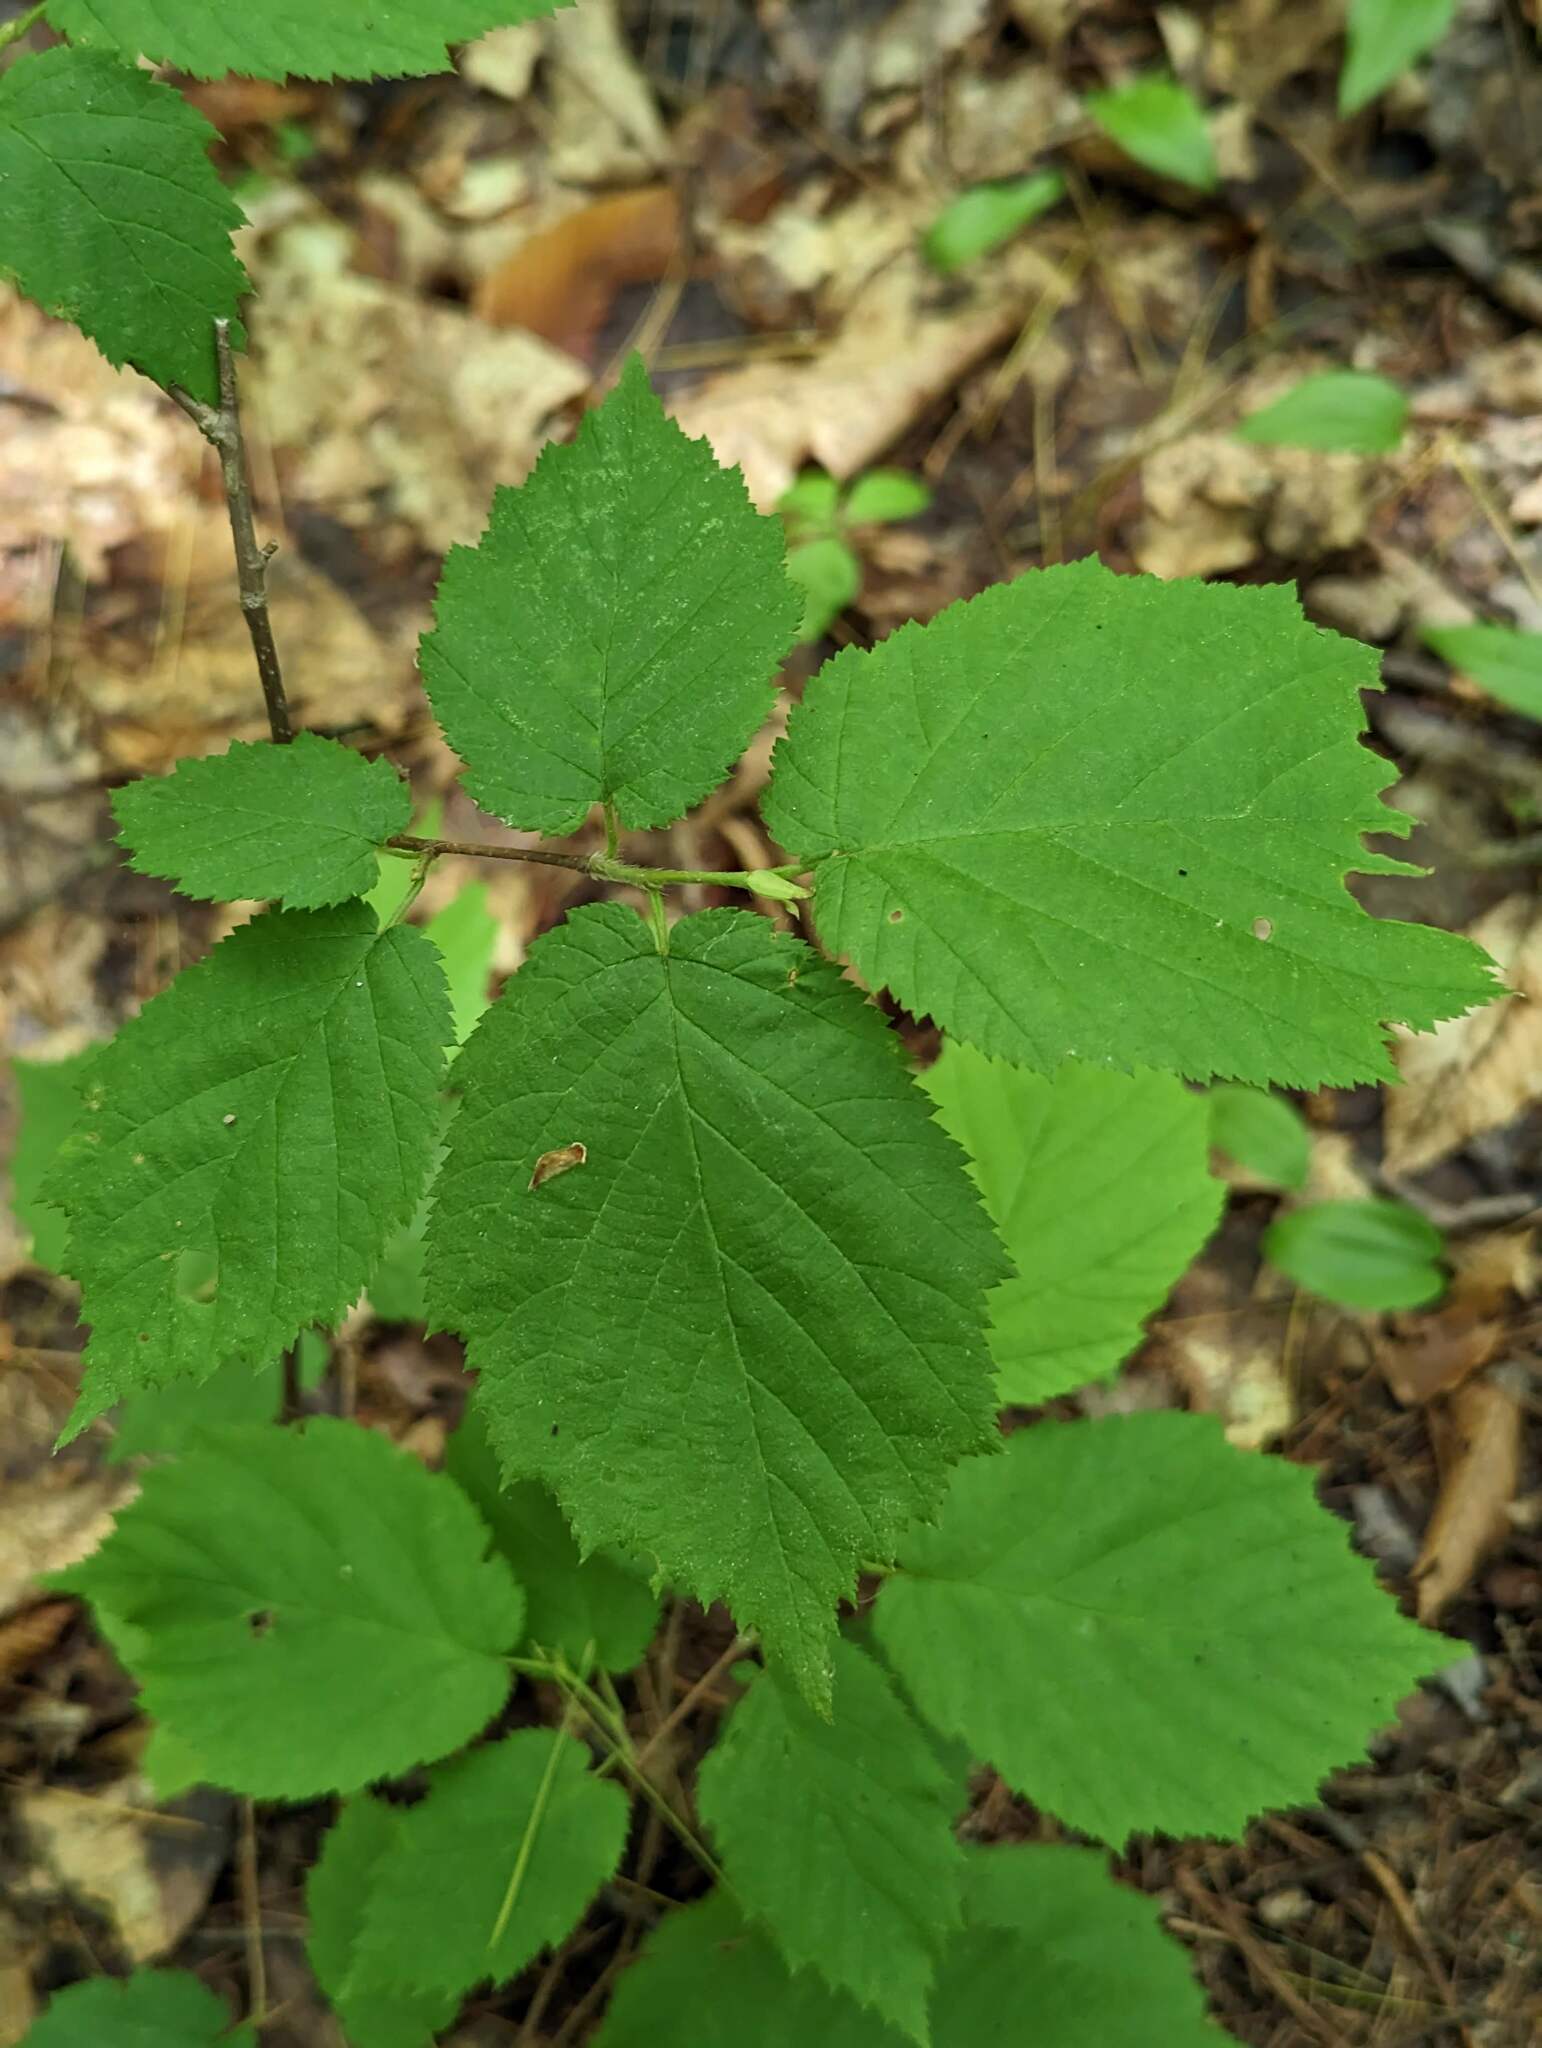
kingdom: Plantae
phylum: Tracheophyta
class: Magnoliopsida
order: Fagales
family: Betulaceae
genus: Corylus
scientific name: Corylus cornuta
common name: Beaked hazel
